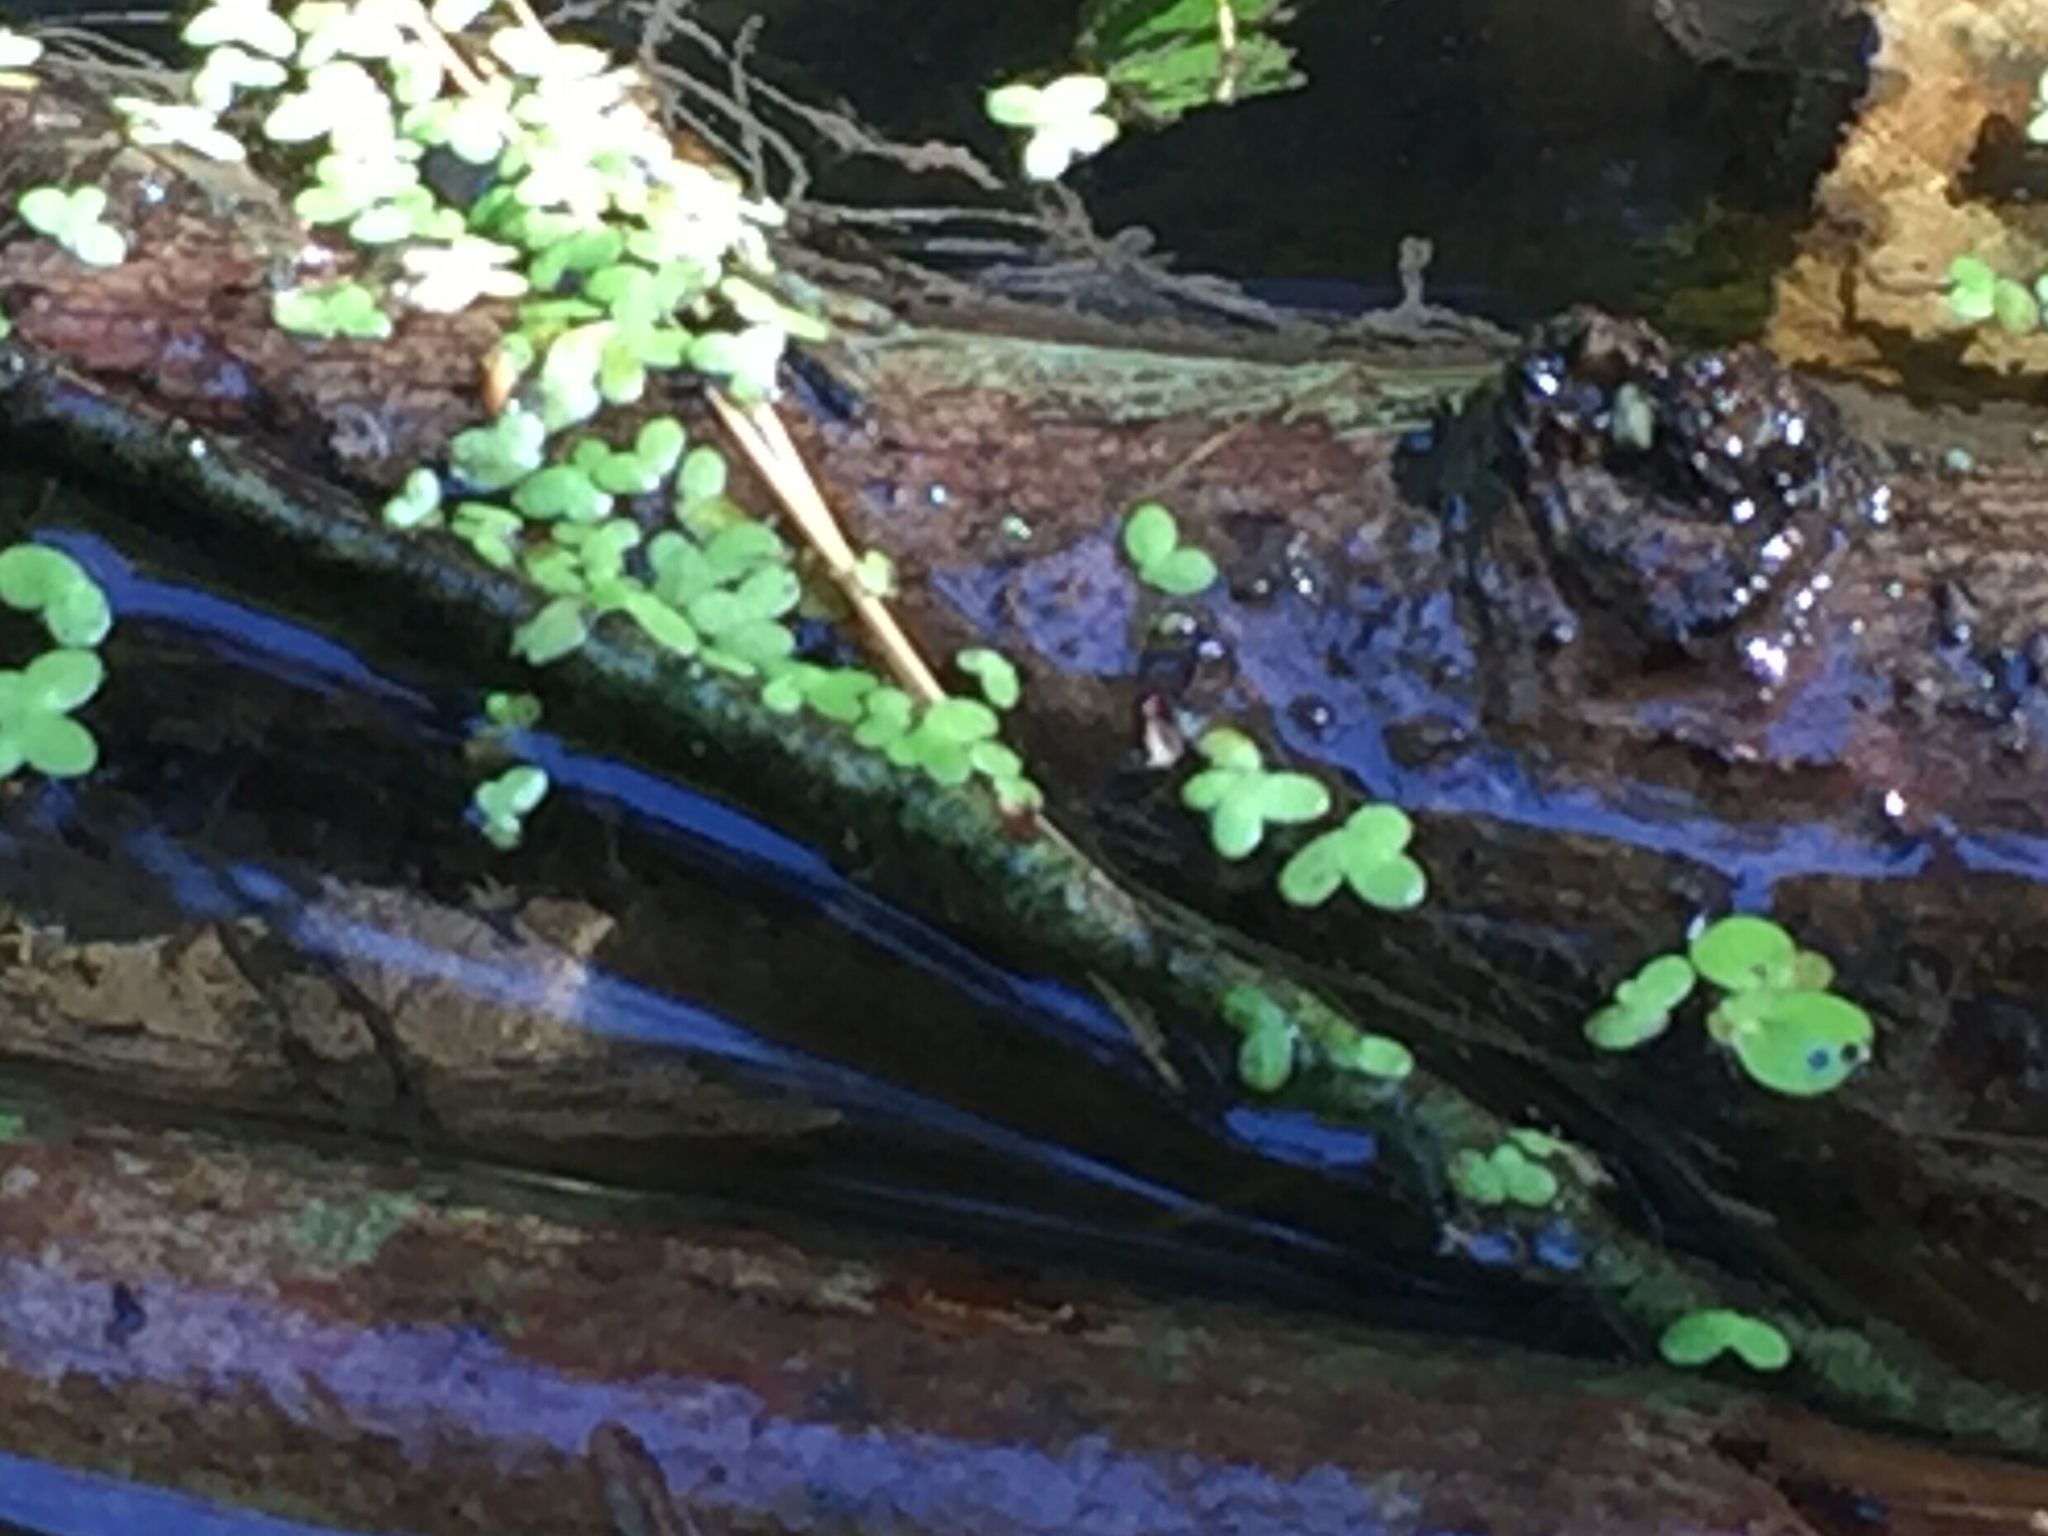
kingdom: Plantae
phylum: Tracheophyta
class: Liliopsida
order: Alismatales
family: Araceae
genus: Lemna
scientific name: Lemna minor
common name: Common duckweed
